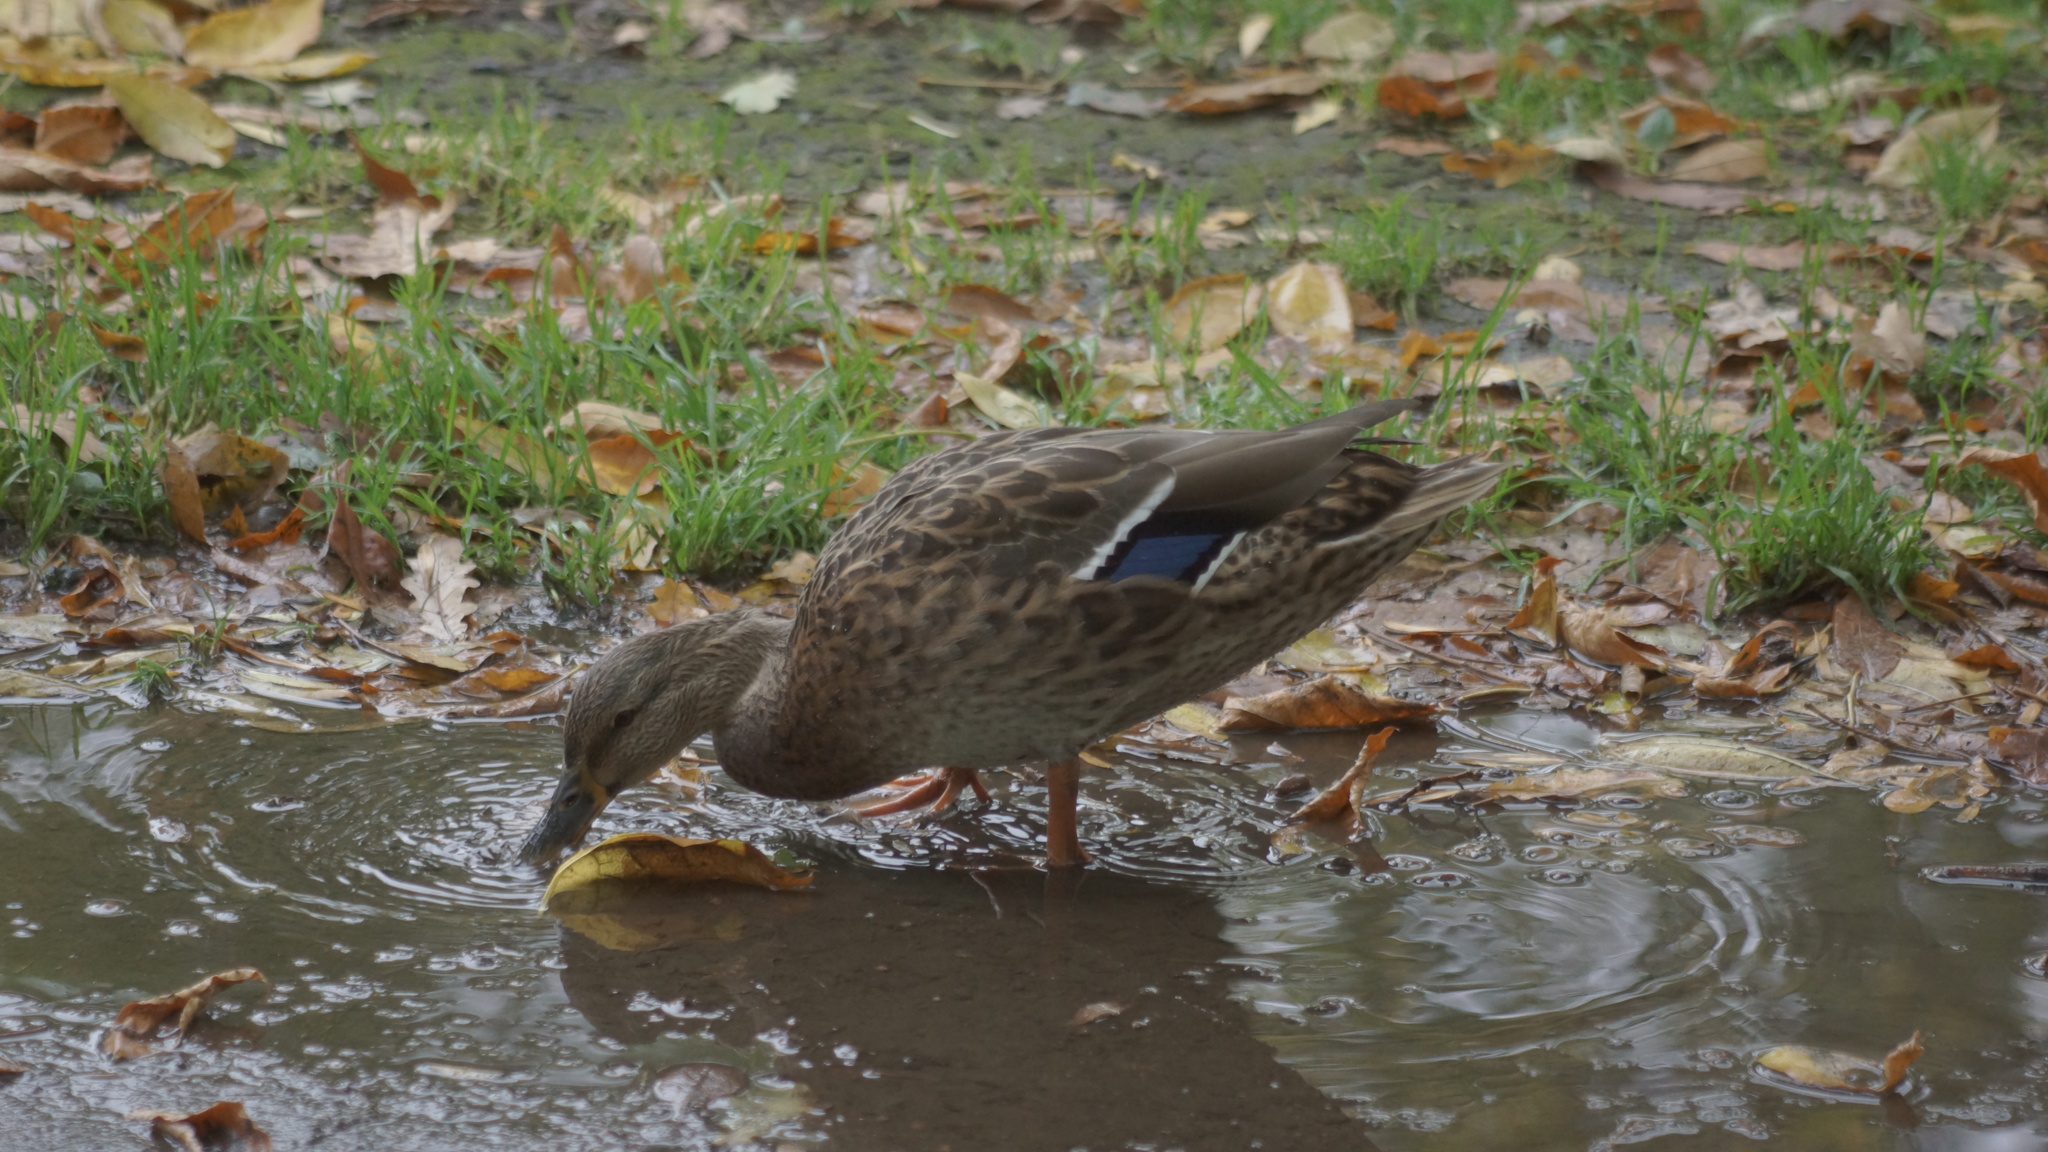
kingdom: Animalia
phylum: Chordata
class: Aves
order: Anseriformes
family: Anatidae
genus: Anas
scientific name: Anas platyrhynchos
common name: Mallard
